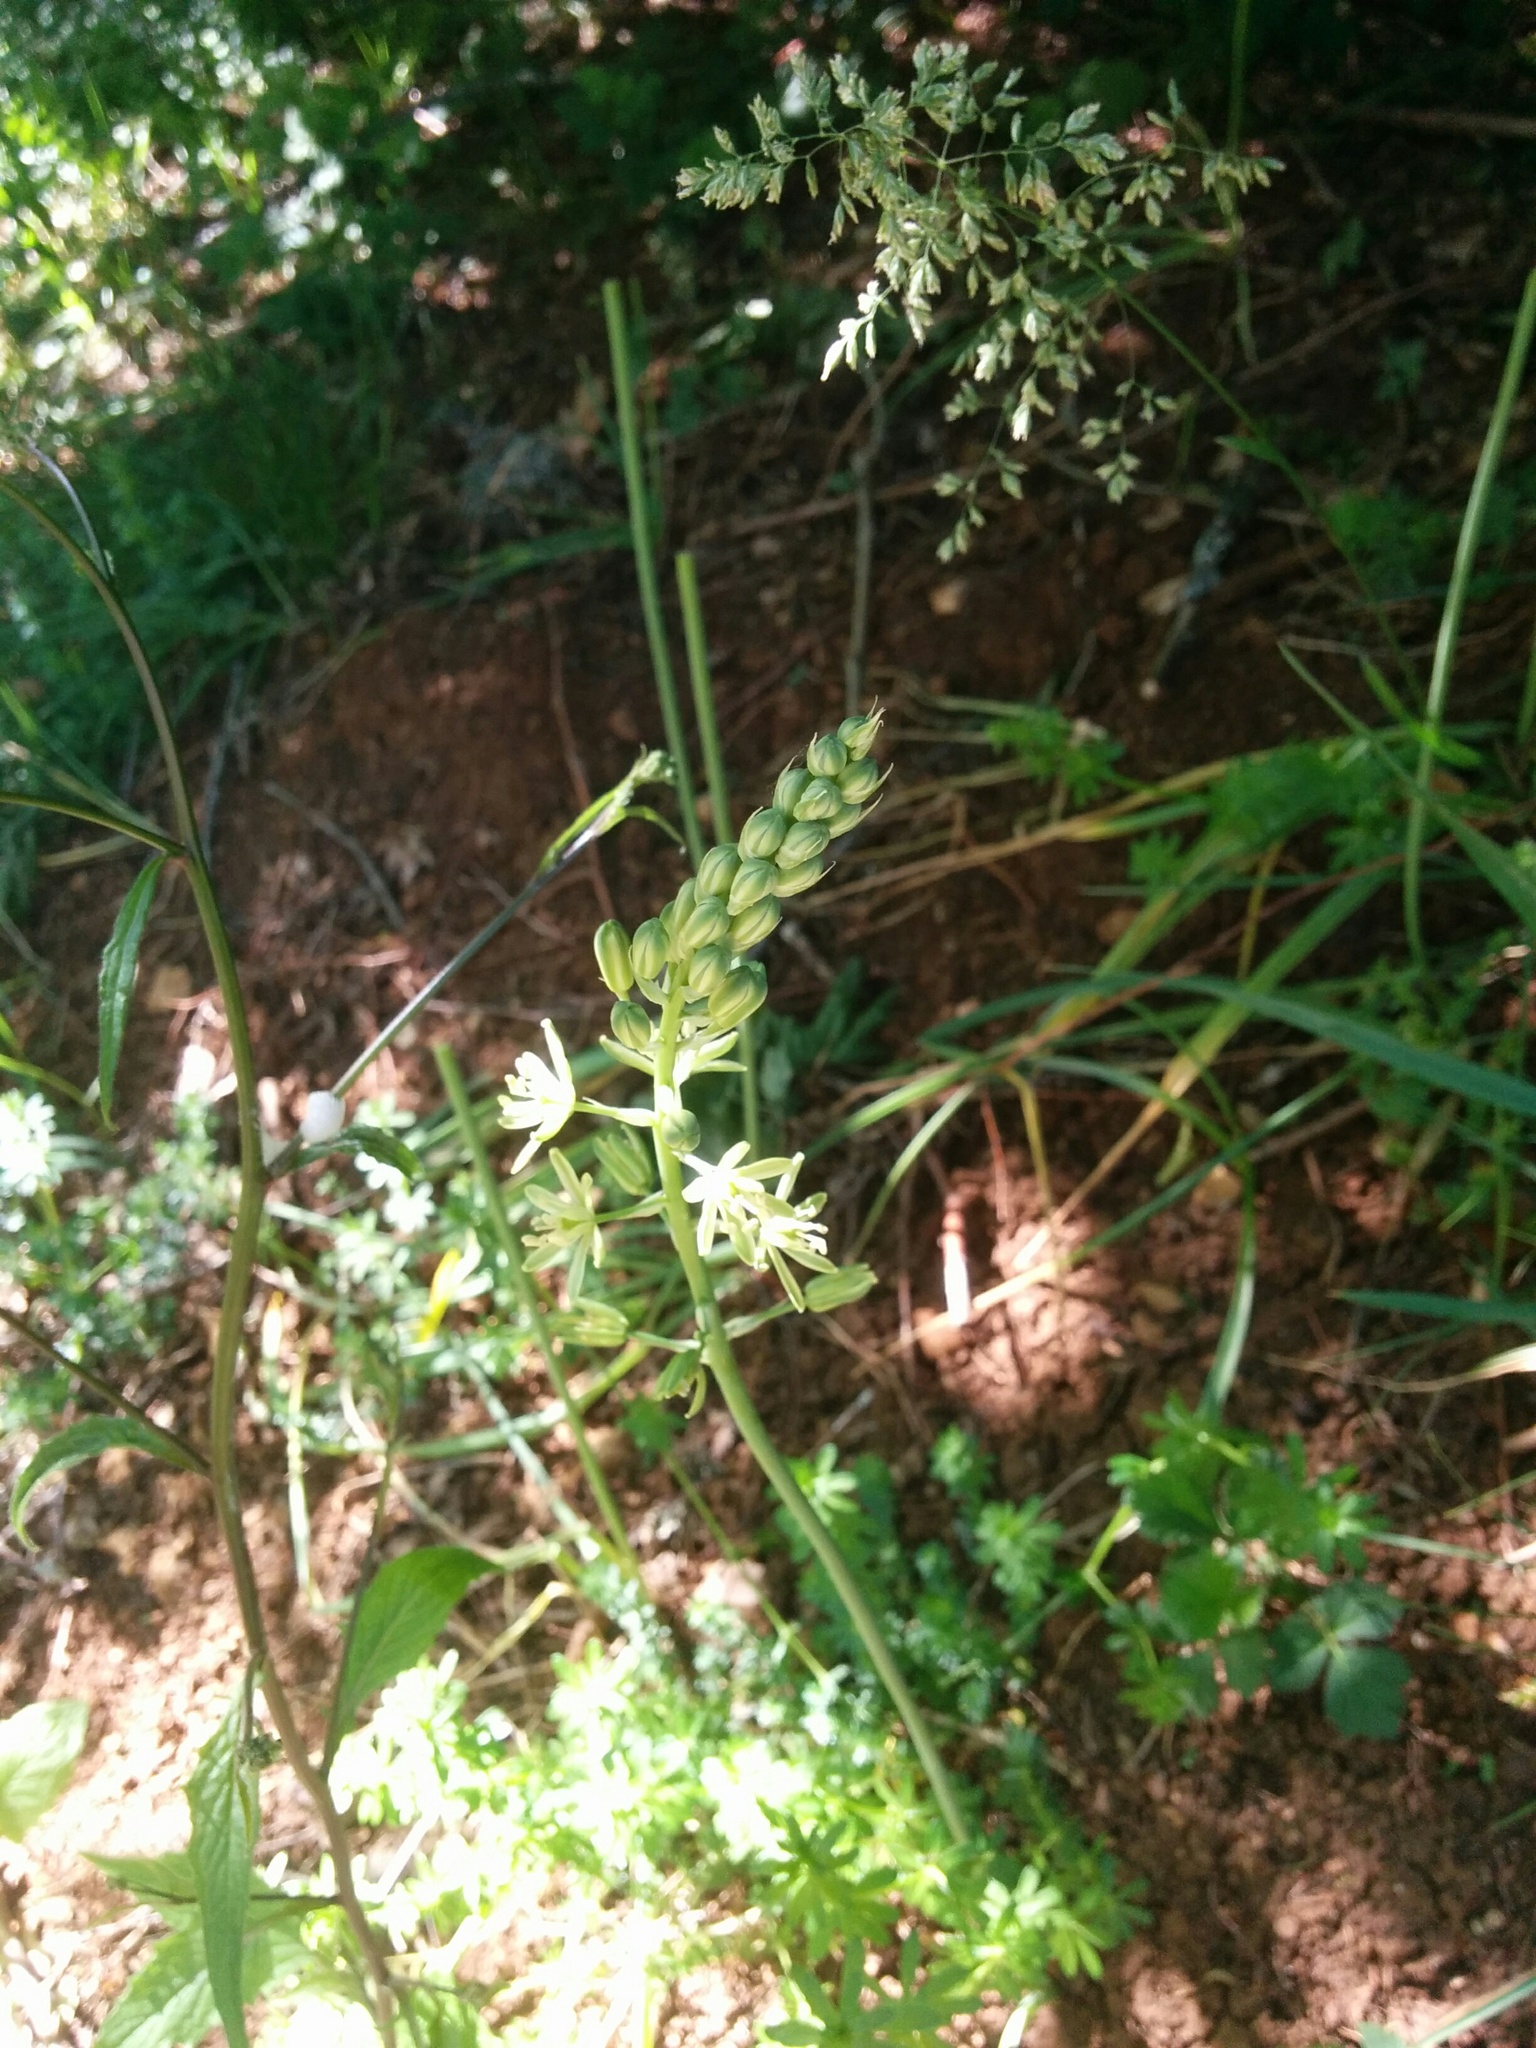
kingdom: Plantae
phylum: Tracheophyta
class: Liliopsida
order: Asparagales
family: Asparagaceae
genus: Ornithogalum
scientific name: Ornithogalum pyrenaicum
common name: Spiked star-of-bethlehem
